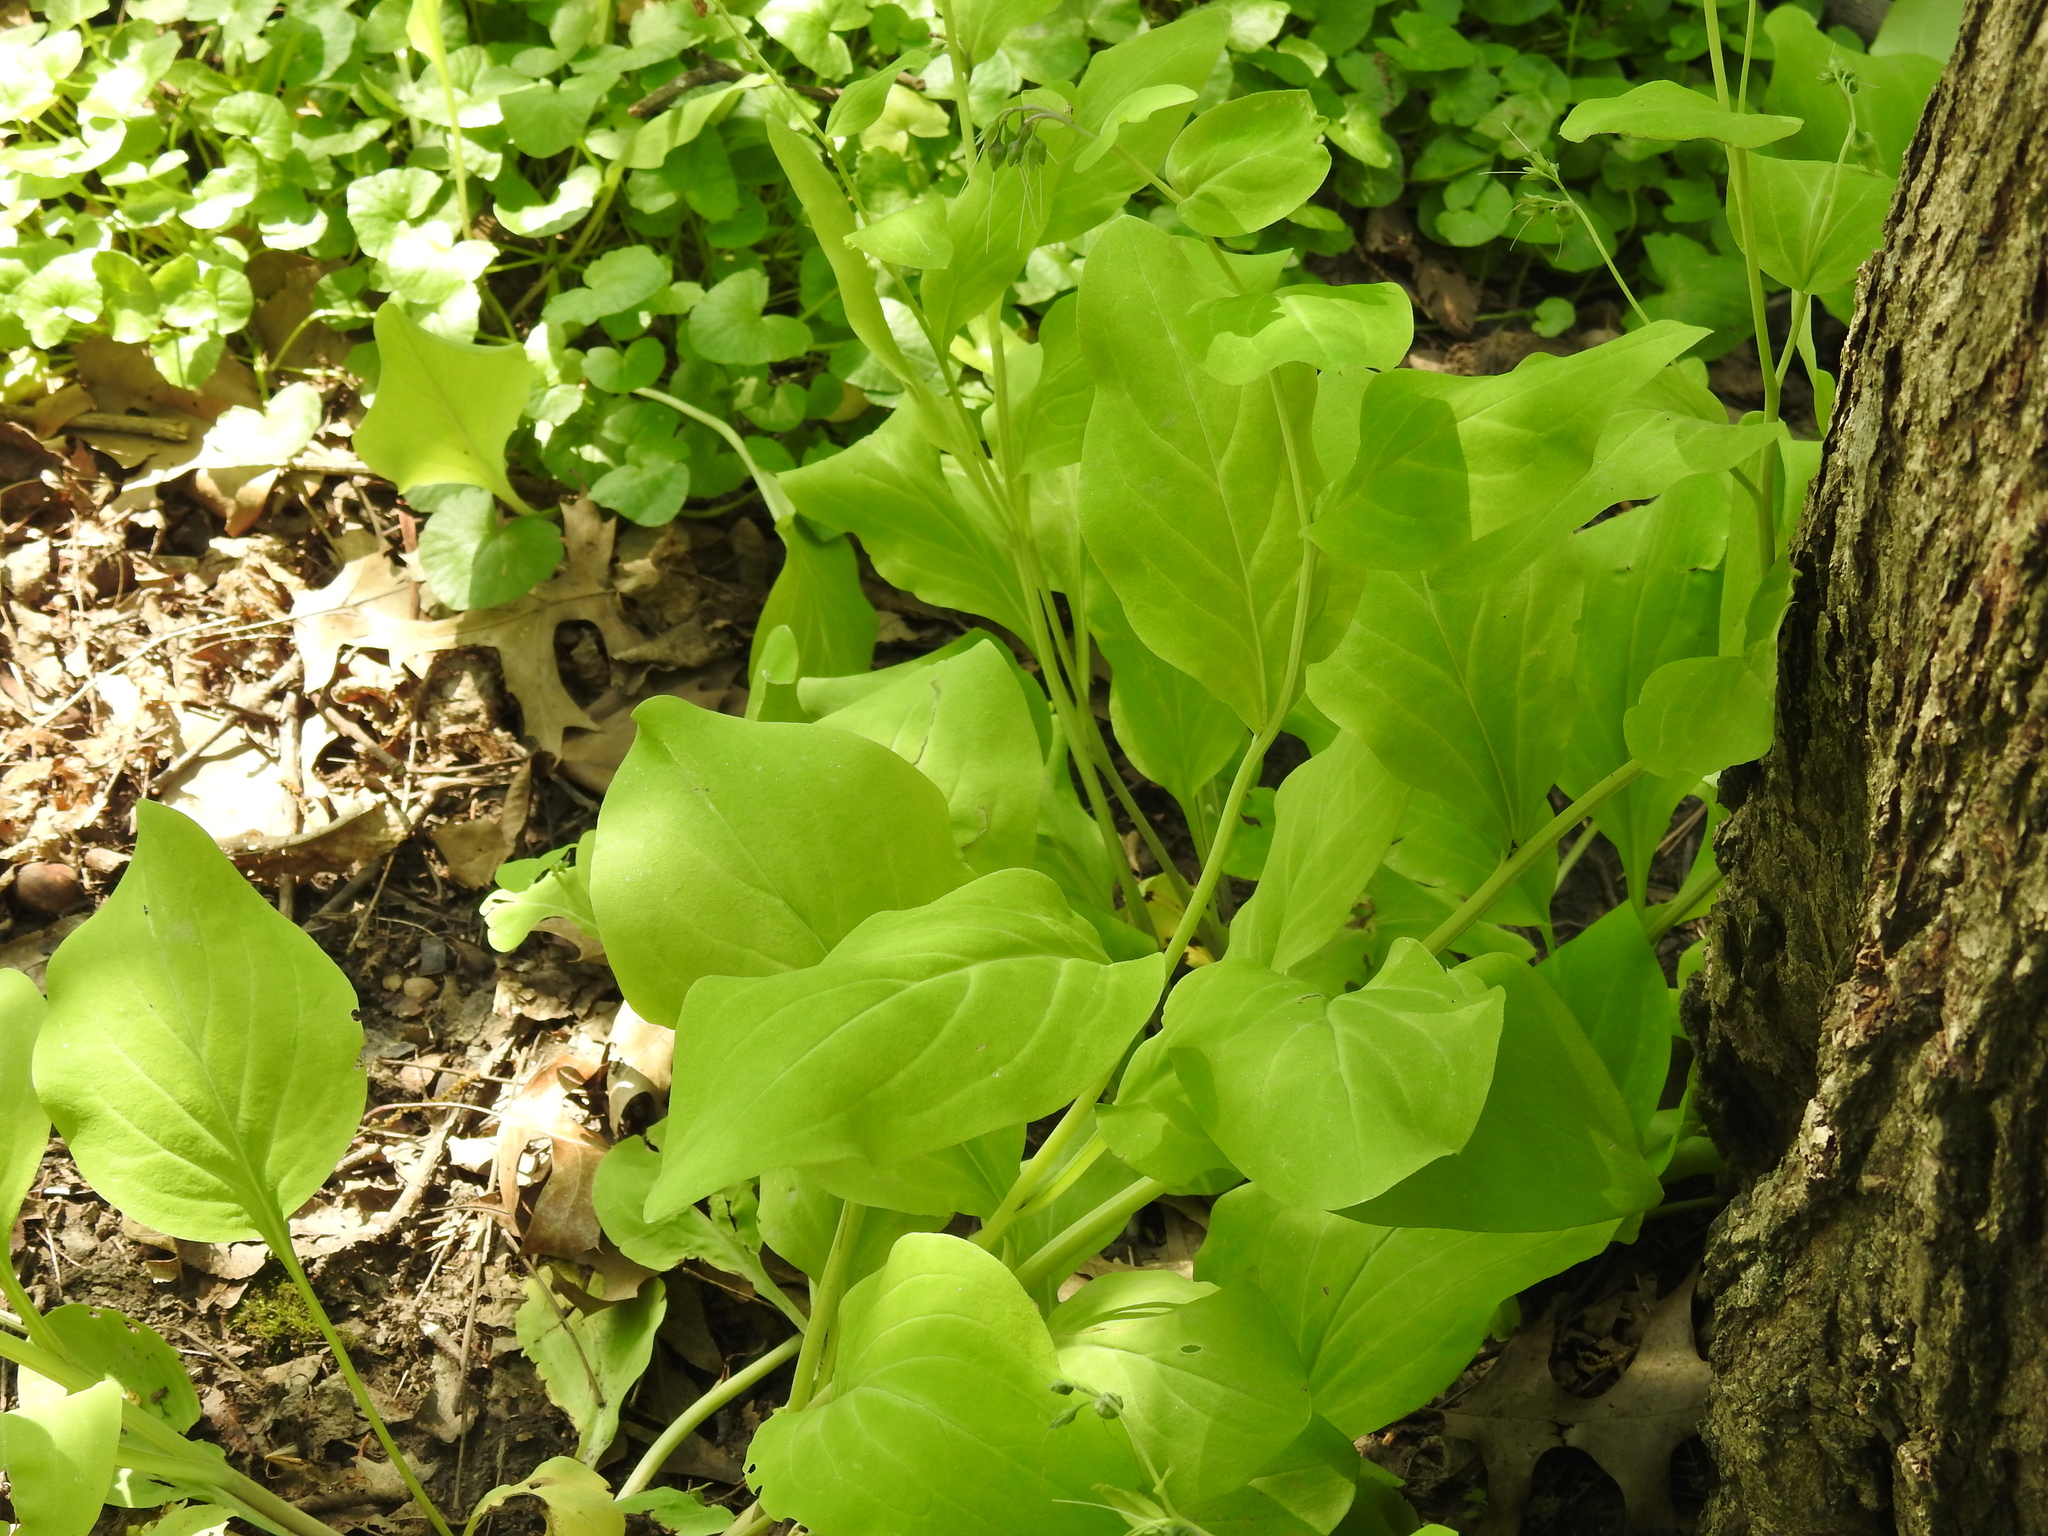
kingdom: Plantae
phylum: Tracheophyta
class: Magnoliopsida
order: Boraginales
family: Boraginaceae
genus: Mertensia
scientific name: Mertensia virginica
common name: Virginia bluebells
